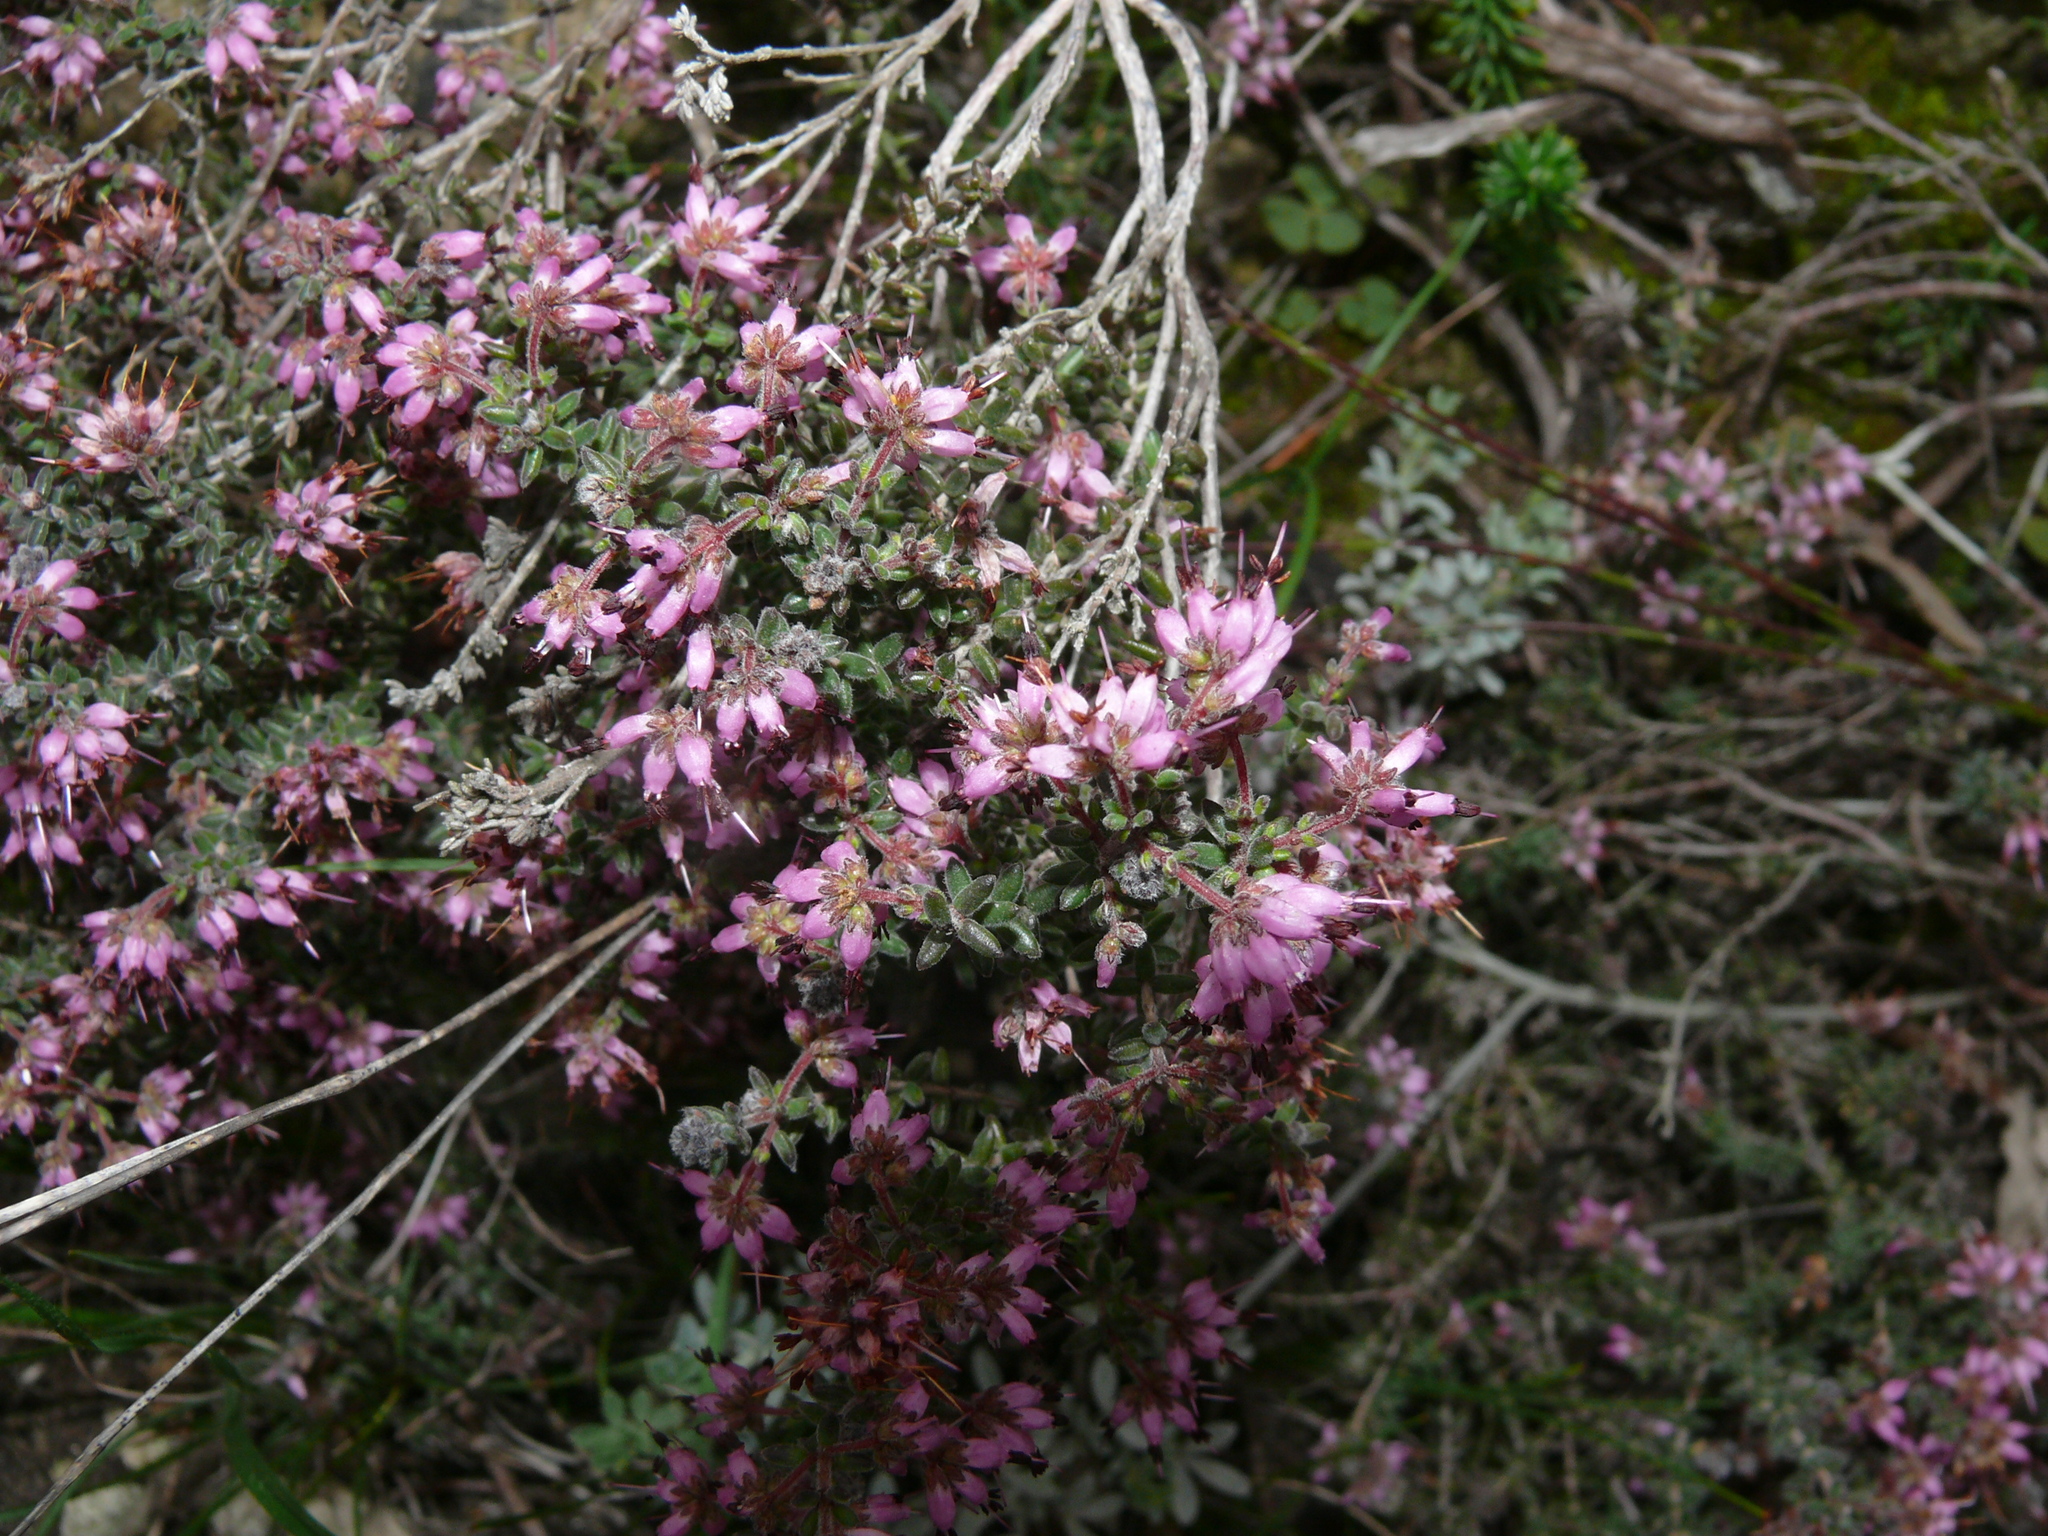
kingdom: Plantae
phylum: Tracheophyta
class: Magnoliopsida
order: Ericales
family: Ericaceae
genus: Erica
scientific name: Erica radicans
